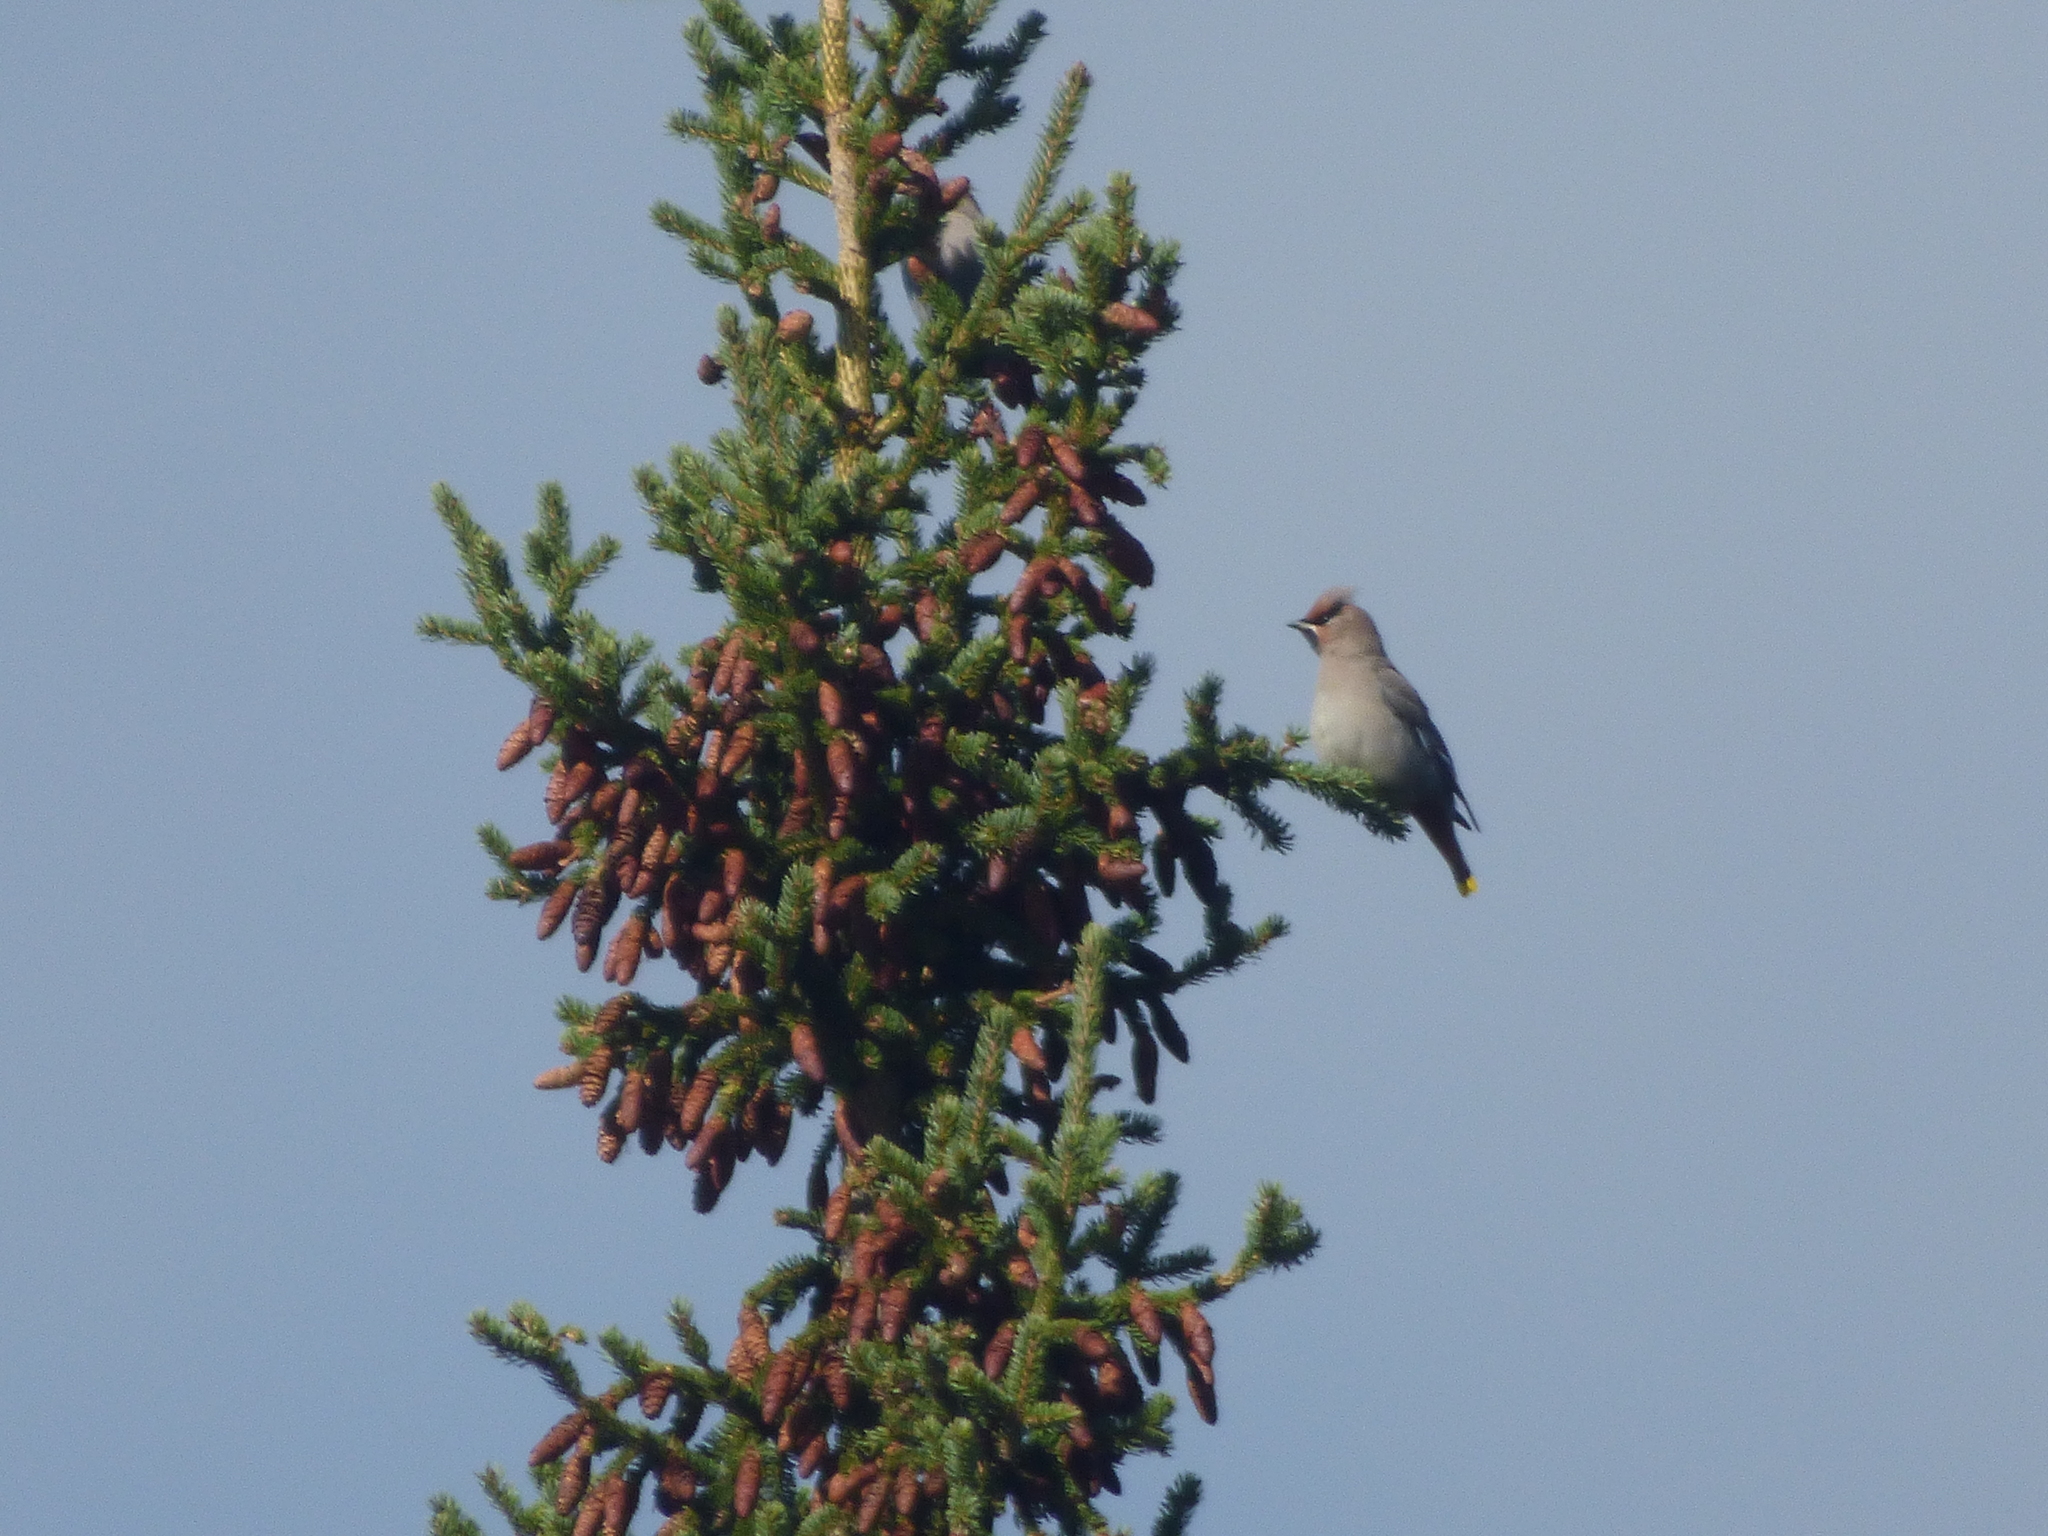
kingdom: Animalia
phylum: Chordata
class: Aves
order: Passeriformes
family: Bombycillidae
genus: Bombycilla
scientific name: Bombycilla garrulus
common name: Bohemian waxwing
